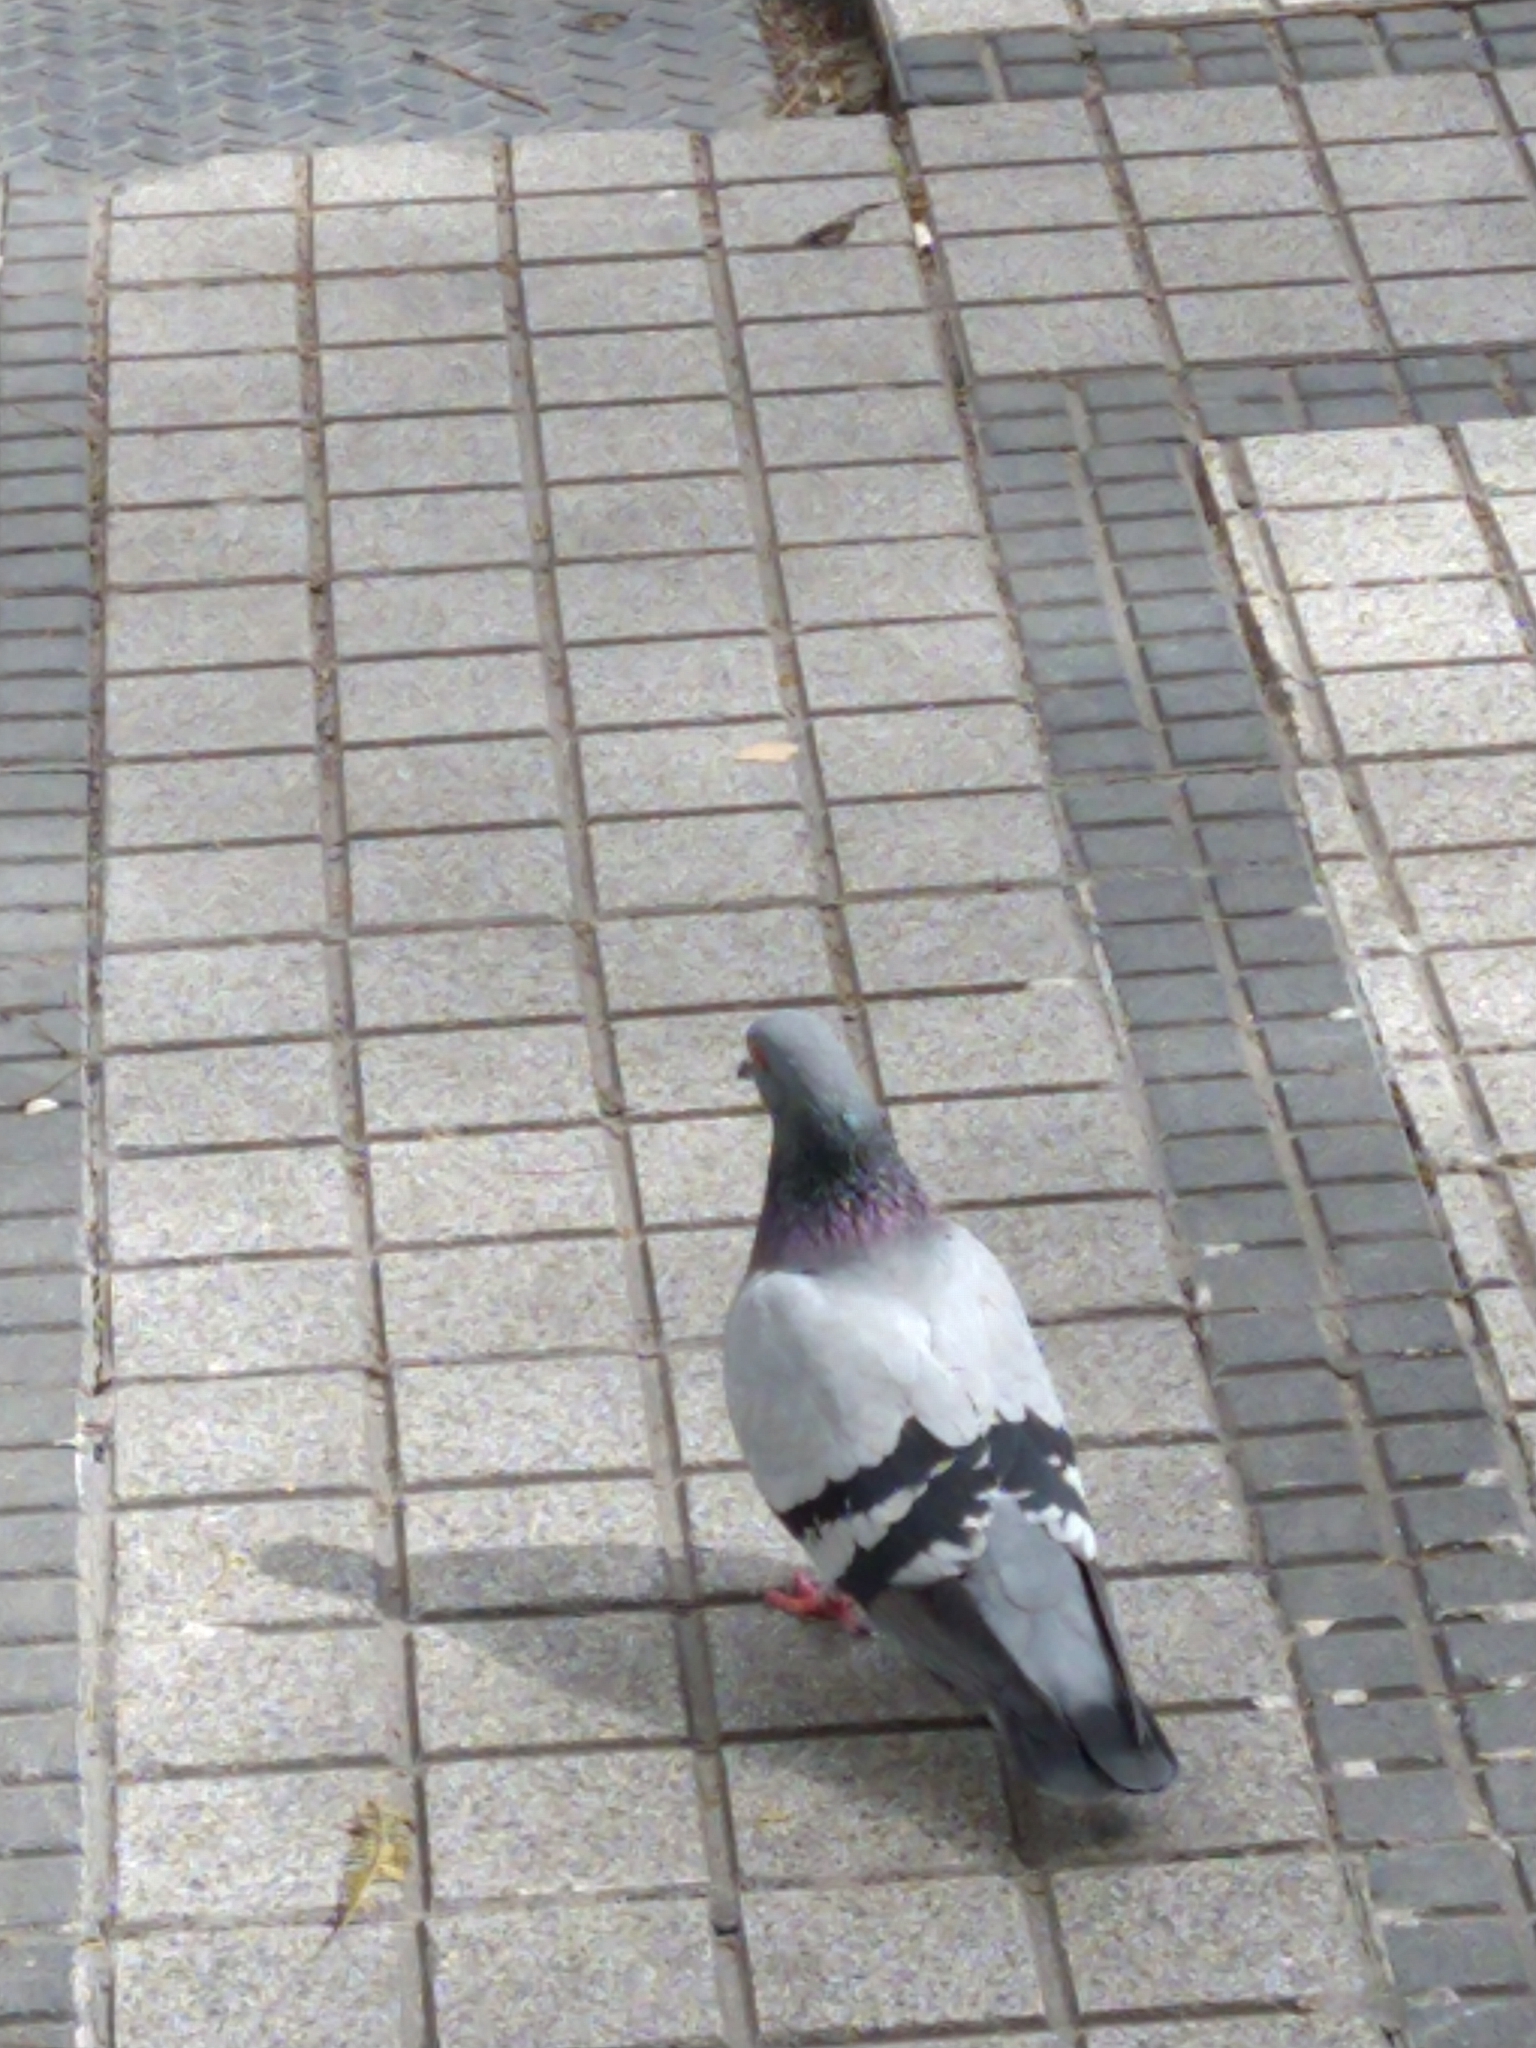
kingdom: Animalia
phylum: Chordata
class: Aves
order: Columbiformes
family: Columbidae
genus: Columba
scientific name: Columba livia
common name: Rock pigeon
